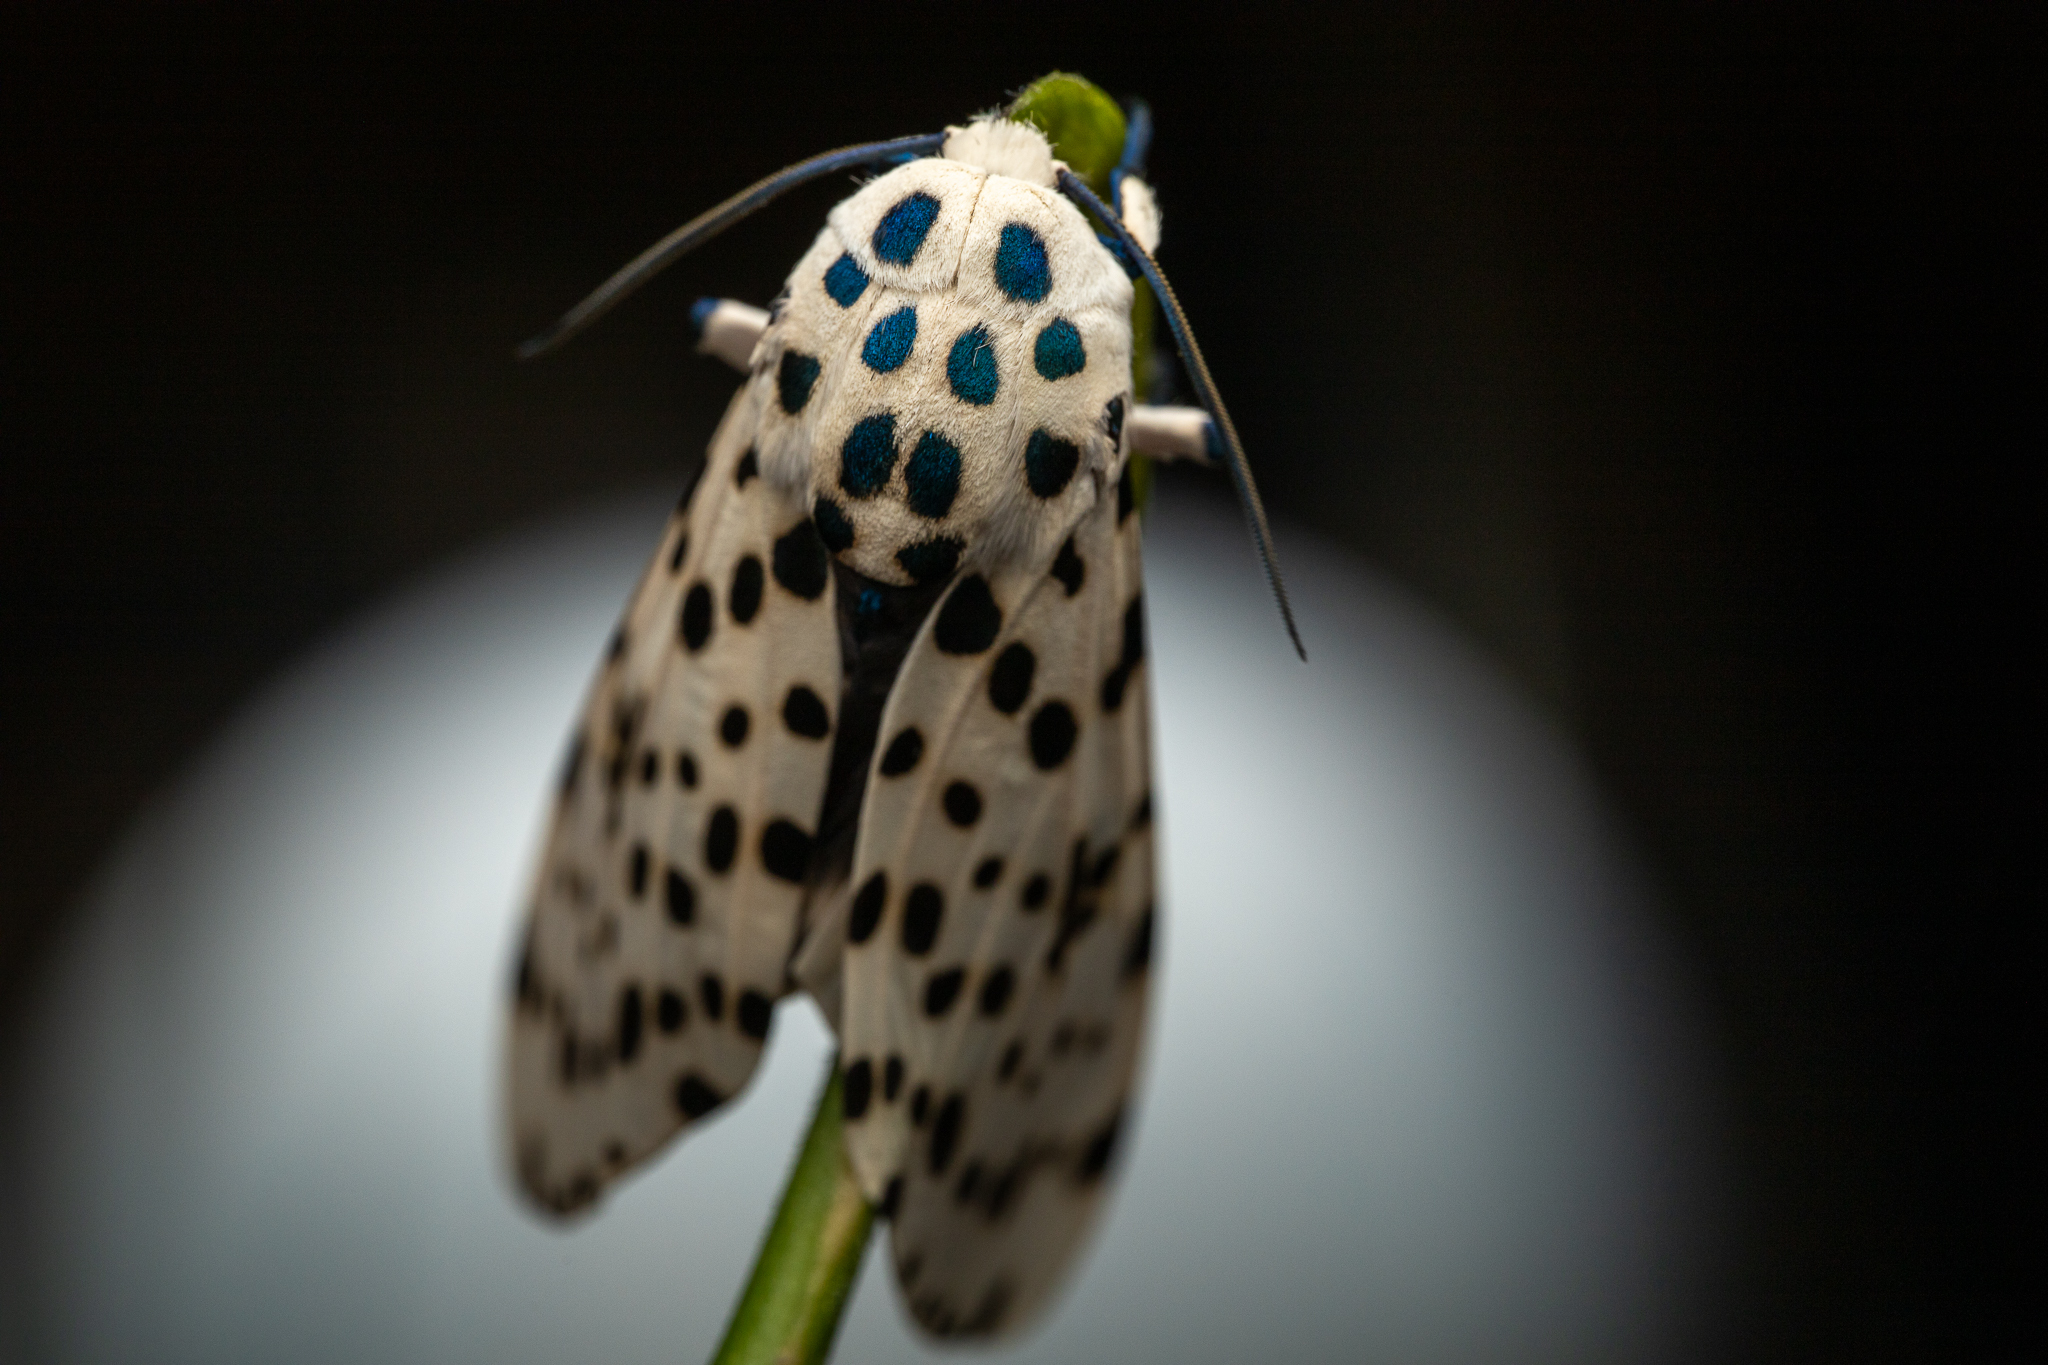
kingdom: Animalia
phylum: Arthropoda
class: Insecta
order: Lepidoptera
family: Erebidae
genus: Hypercompe
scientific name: Hypercompe scribonia
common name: Giant leopard moth
